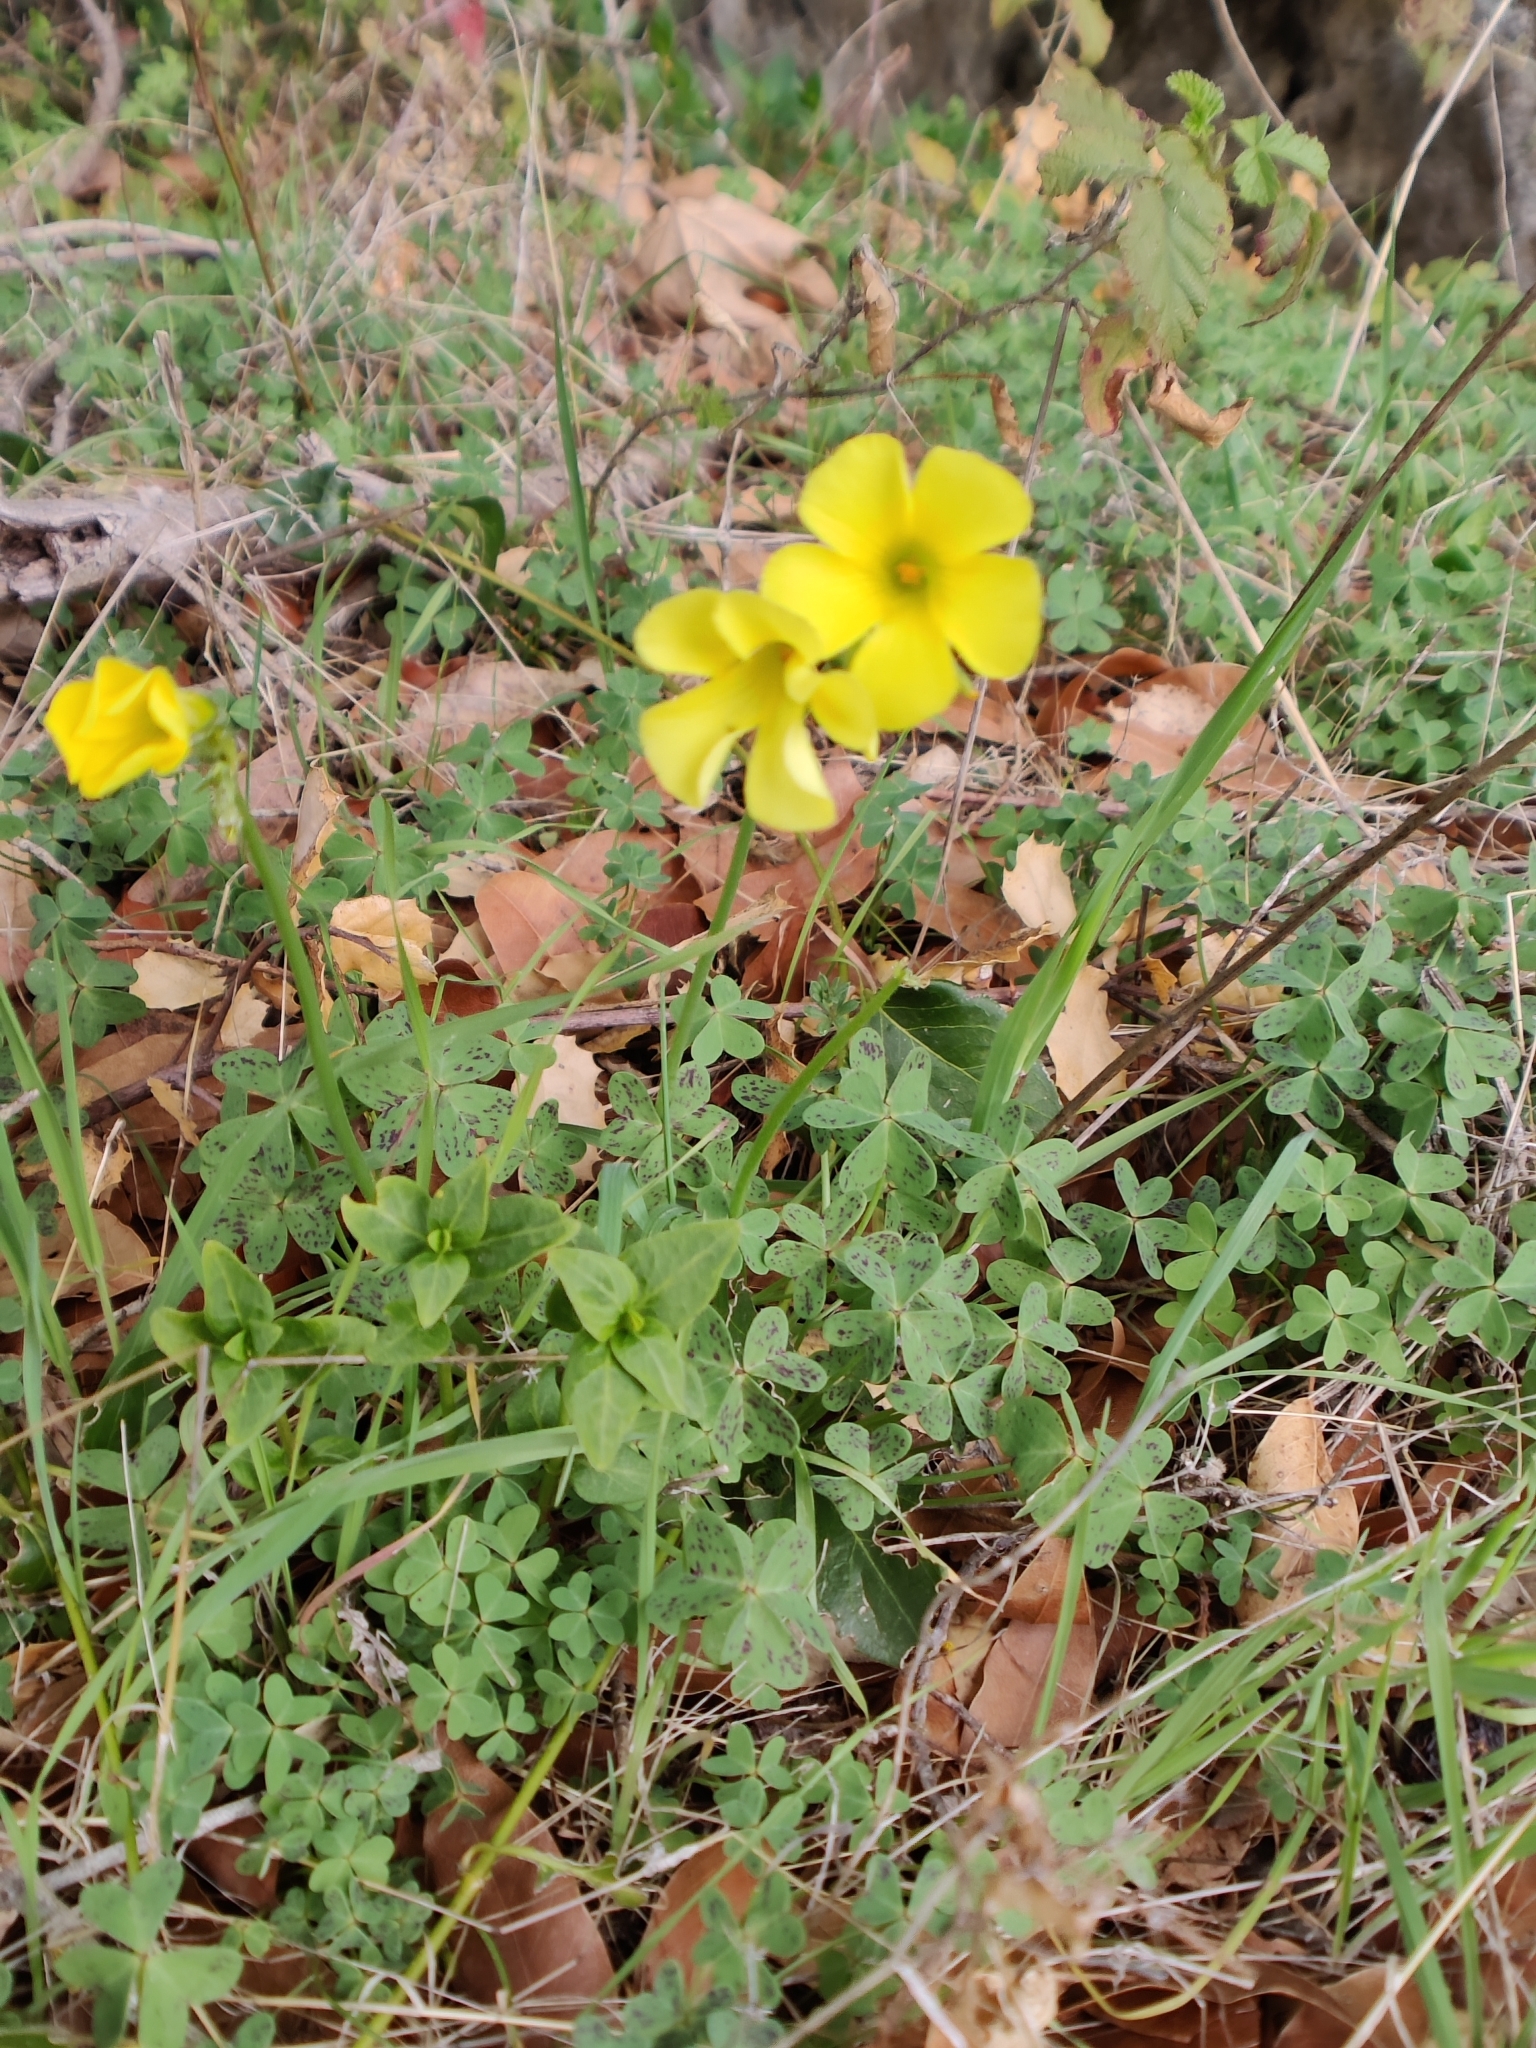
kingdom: Plantae
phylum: Tracheophyta
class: Magnoliopsida
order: Oxalidales
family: Oxalidaceae
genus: Oxalis
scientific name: Oxalis pes-caprae
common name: Bermuda-buttercup
